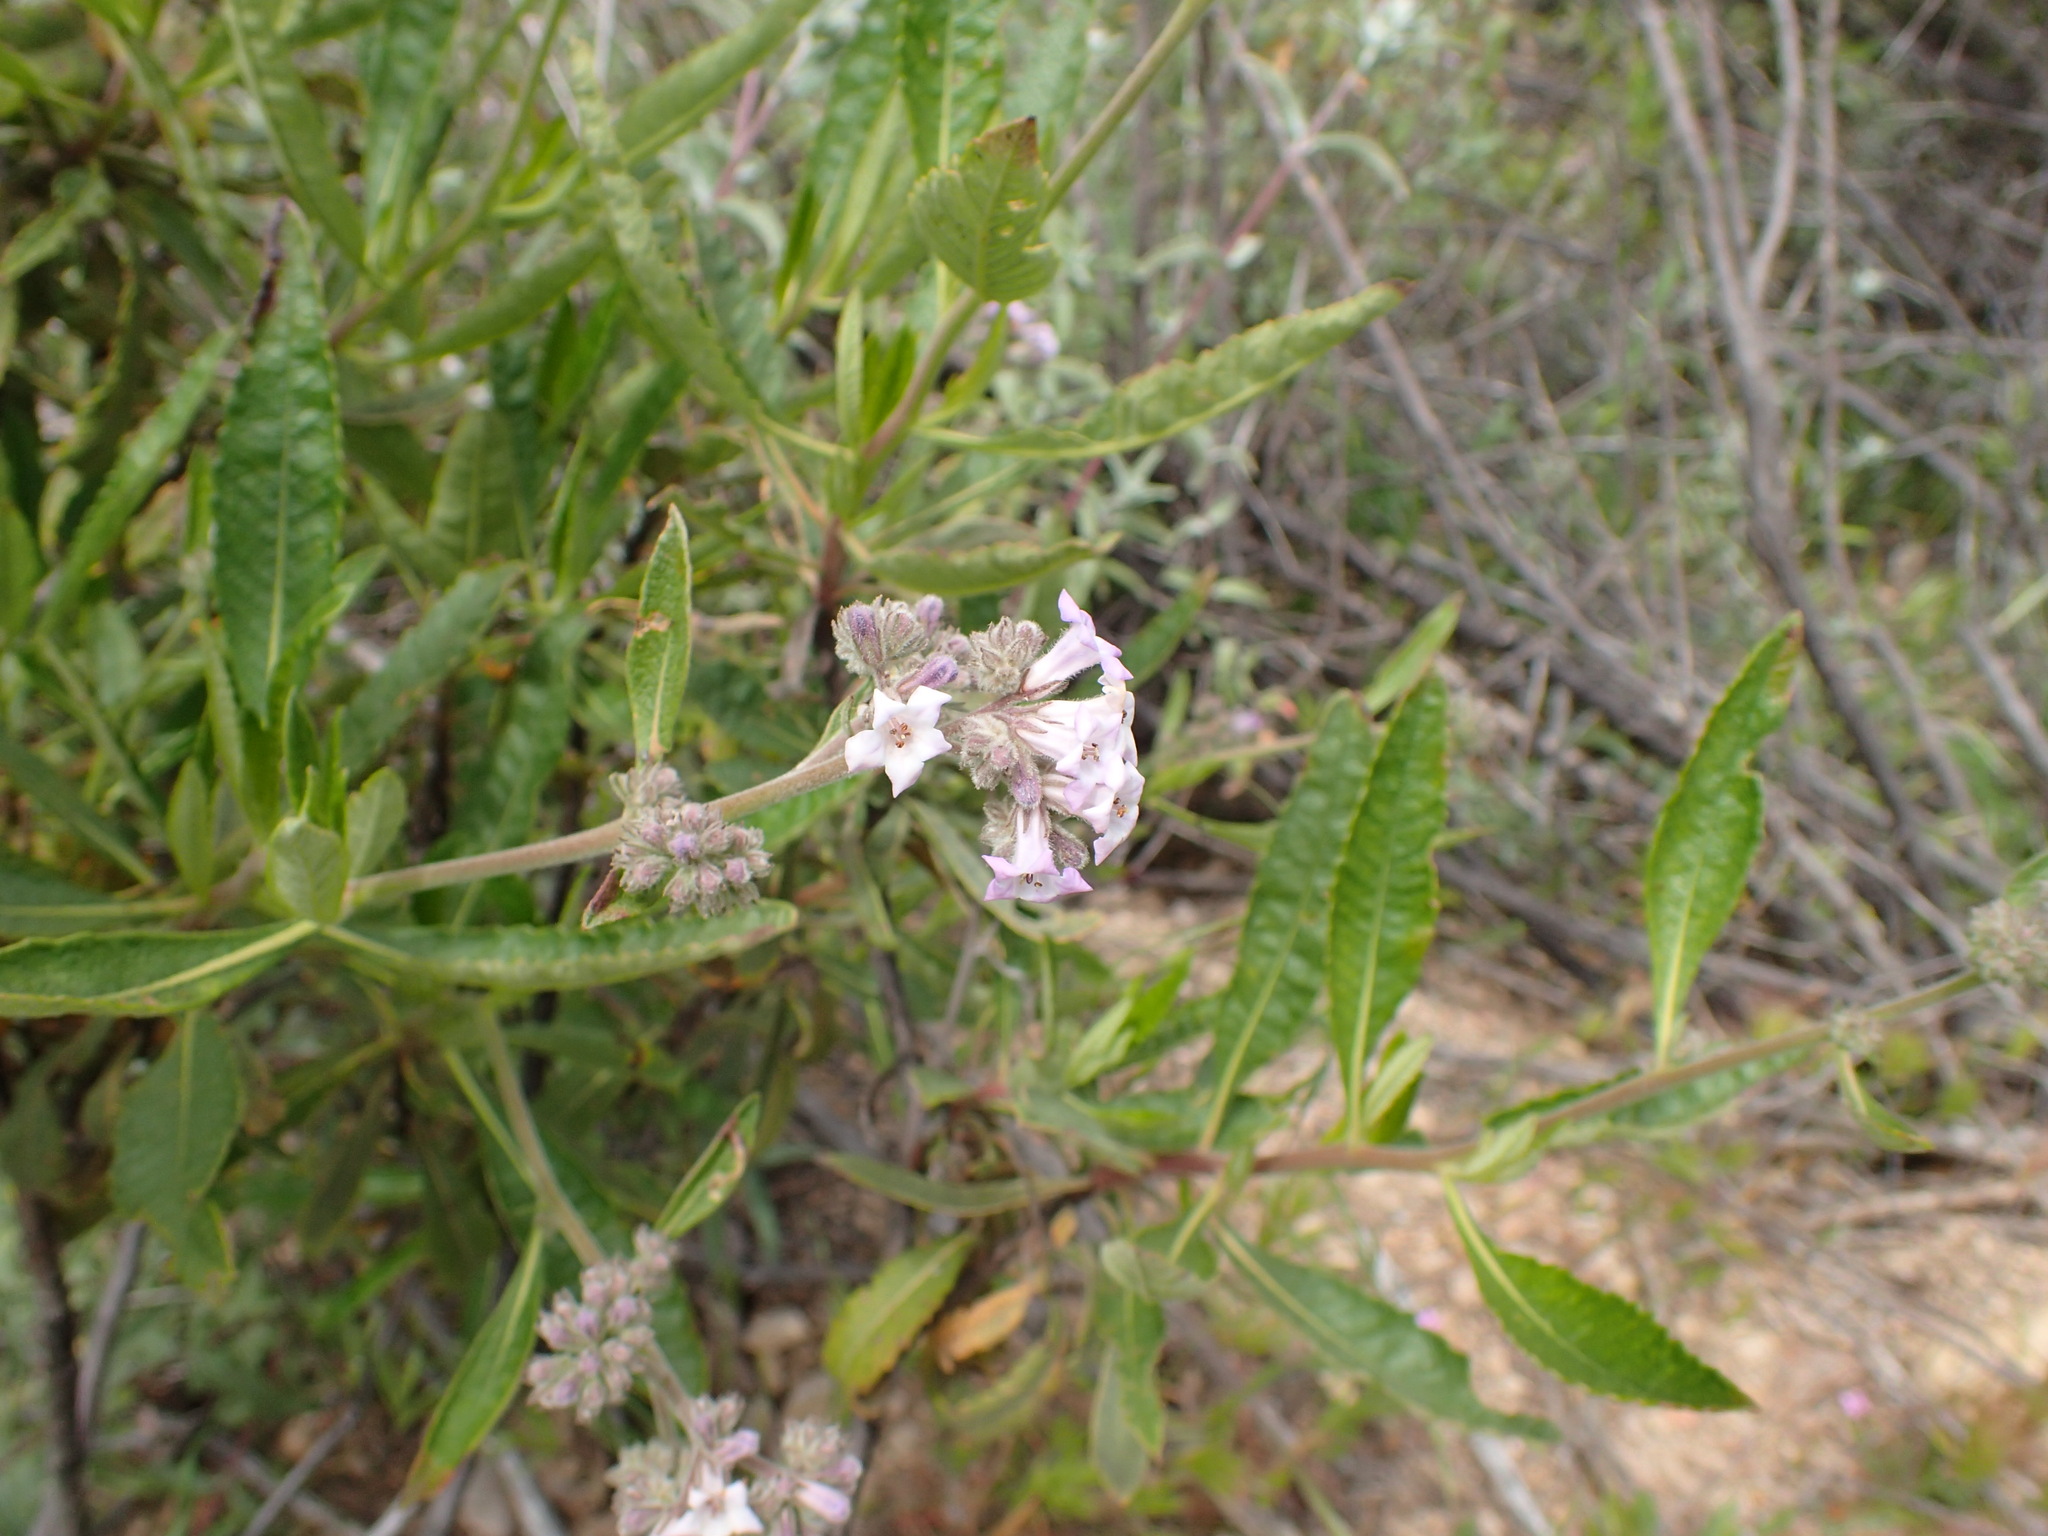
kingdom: Plantae
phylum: Tracheophyta
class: Magnoliopsida
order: Boraginales
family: Namaceae
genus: Eriodictyon
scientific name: Eriodictyon crassifolium
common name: Thick-leaf yerba-santa
